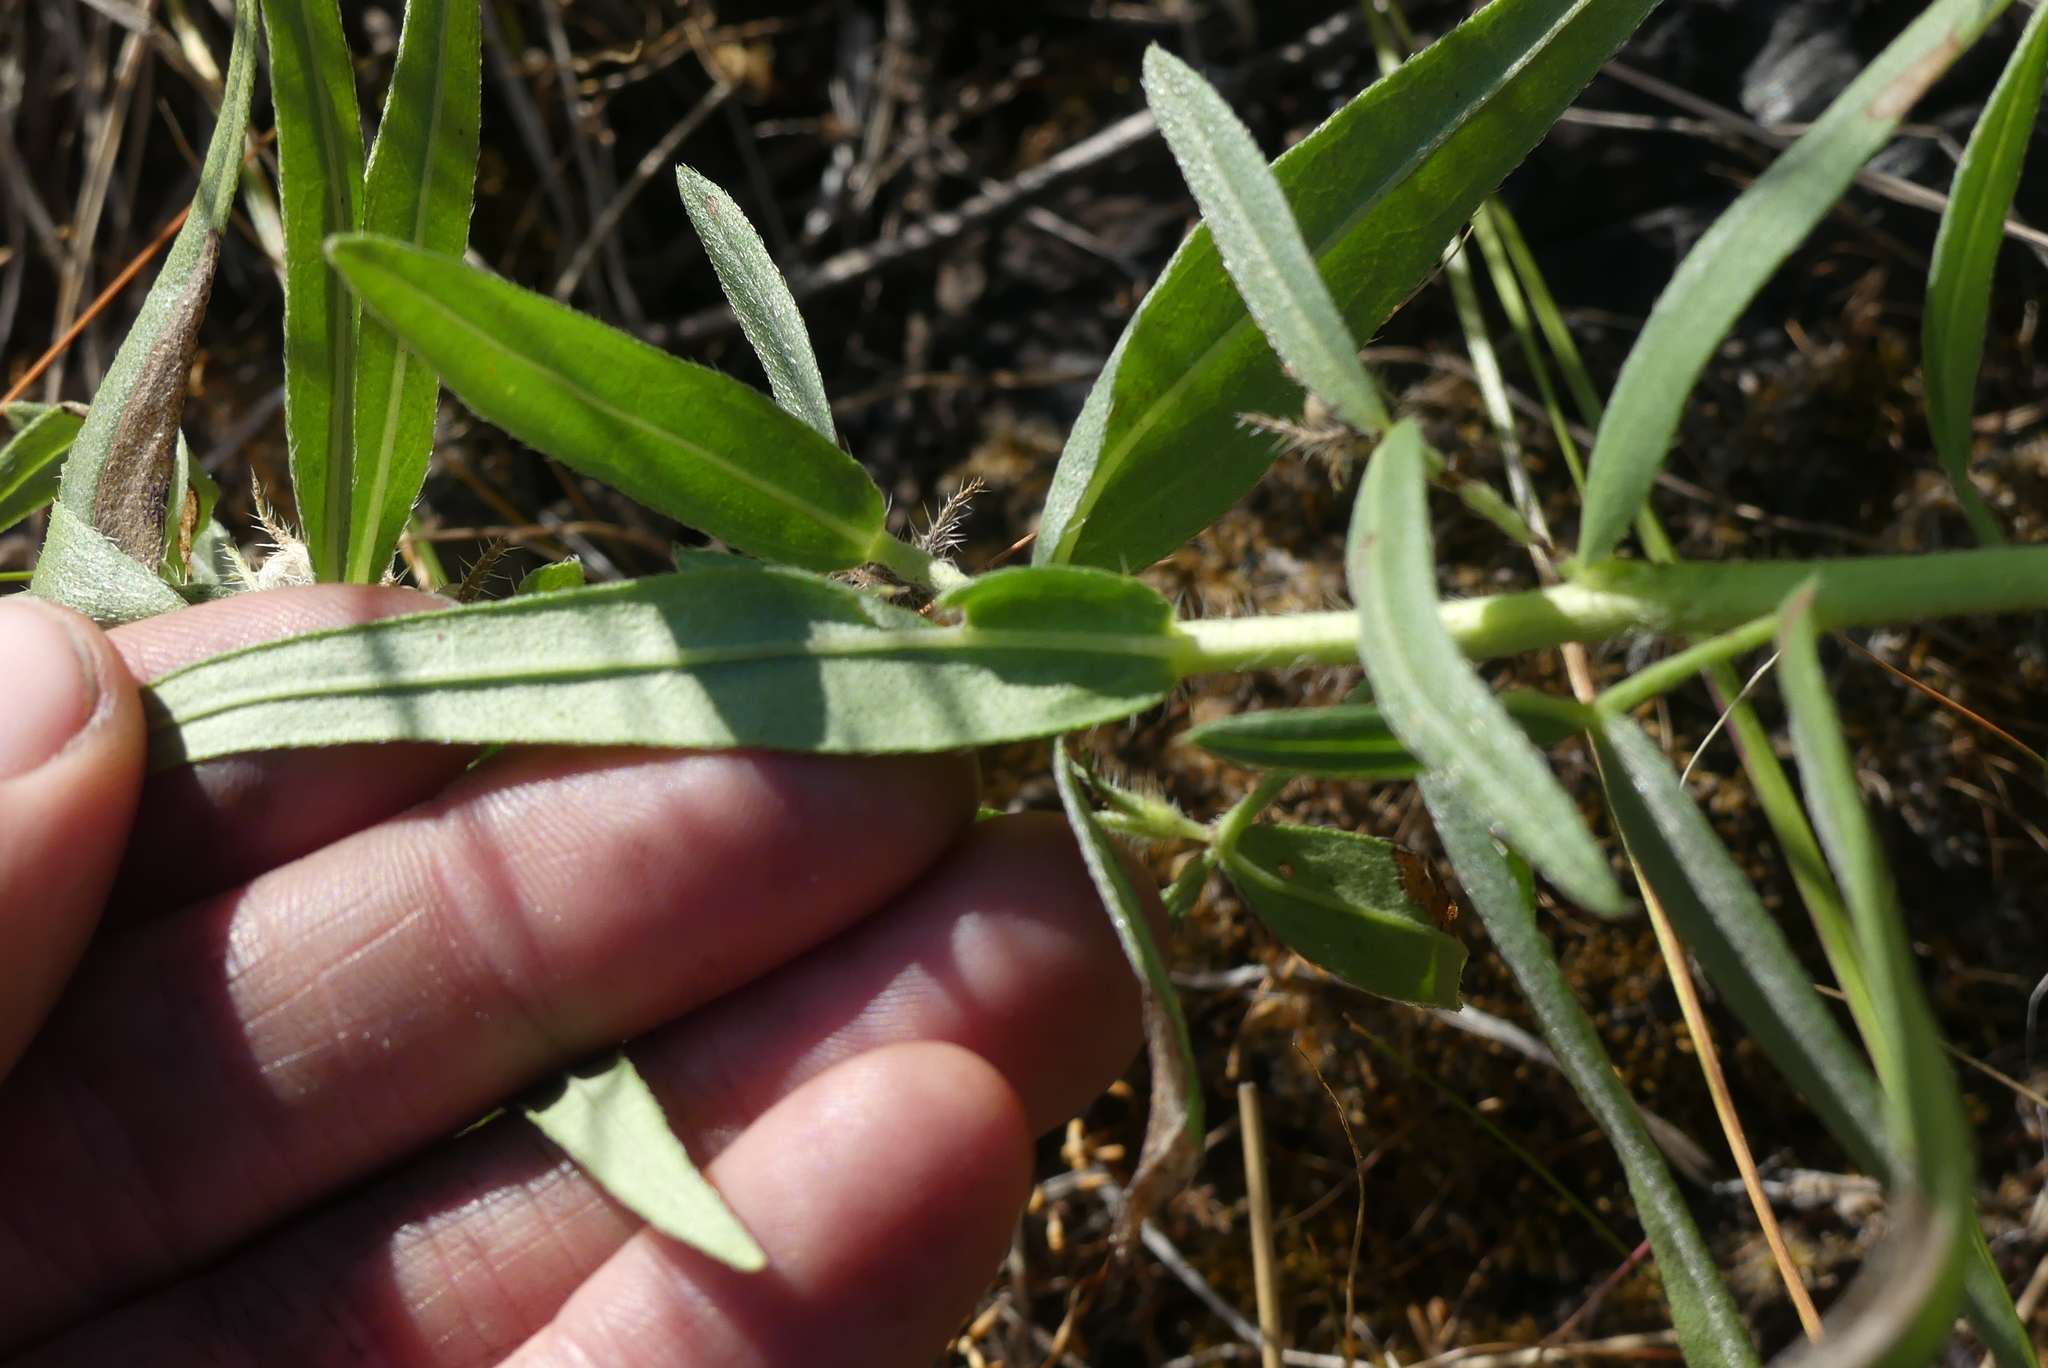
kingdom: Plantae
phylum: Tracheophyta
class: Magnoliopsida
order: Boraginales
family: Boraginaceae
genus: Lithospermum
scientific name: Lithospermum ruderale
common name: Western gromwell
